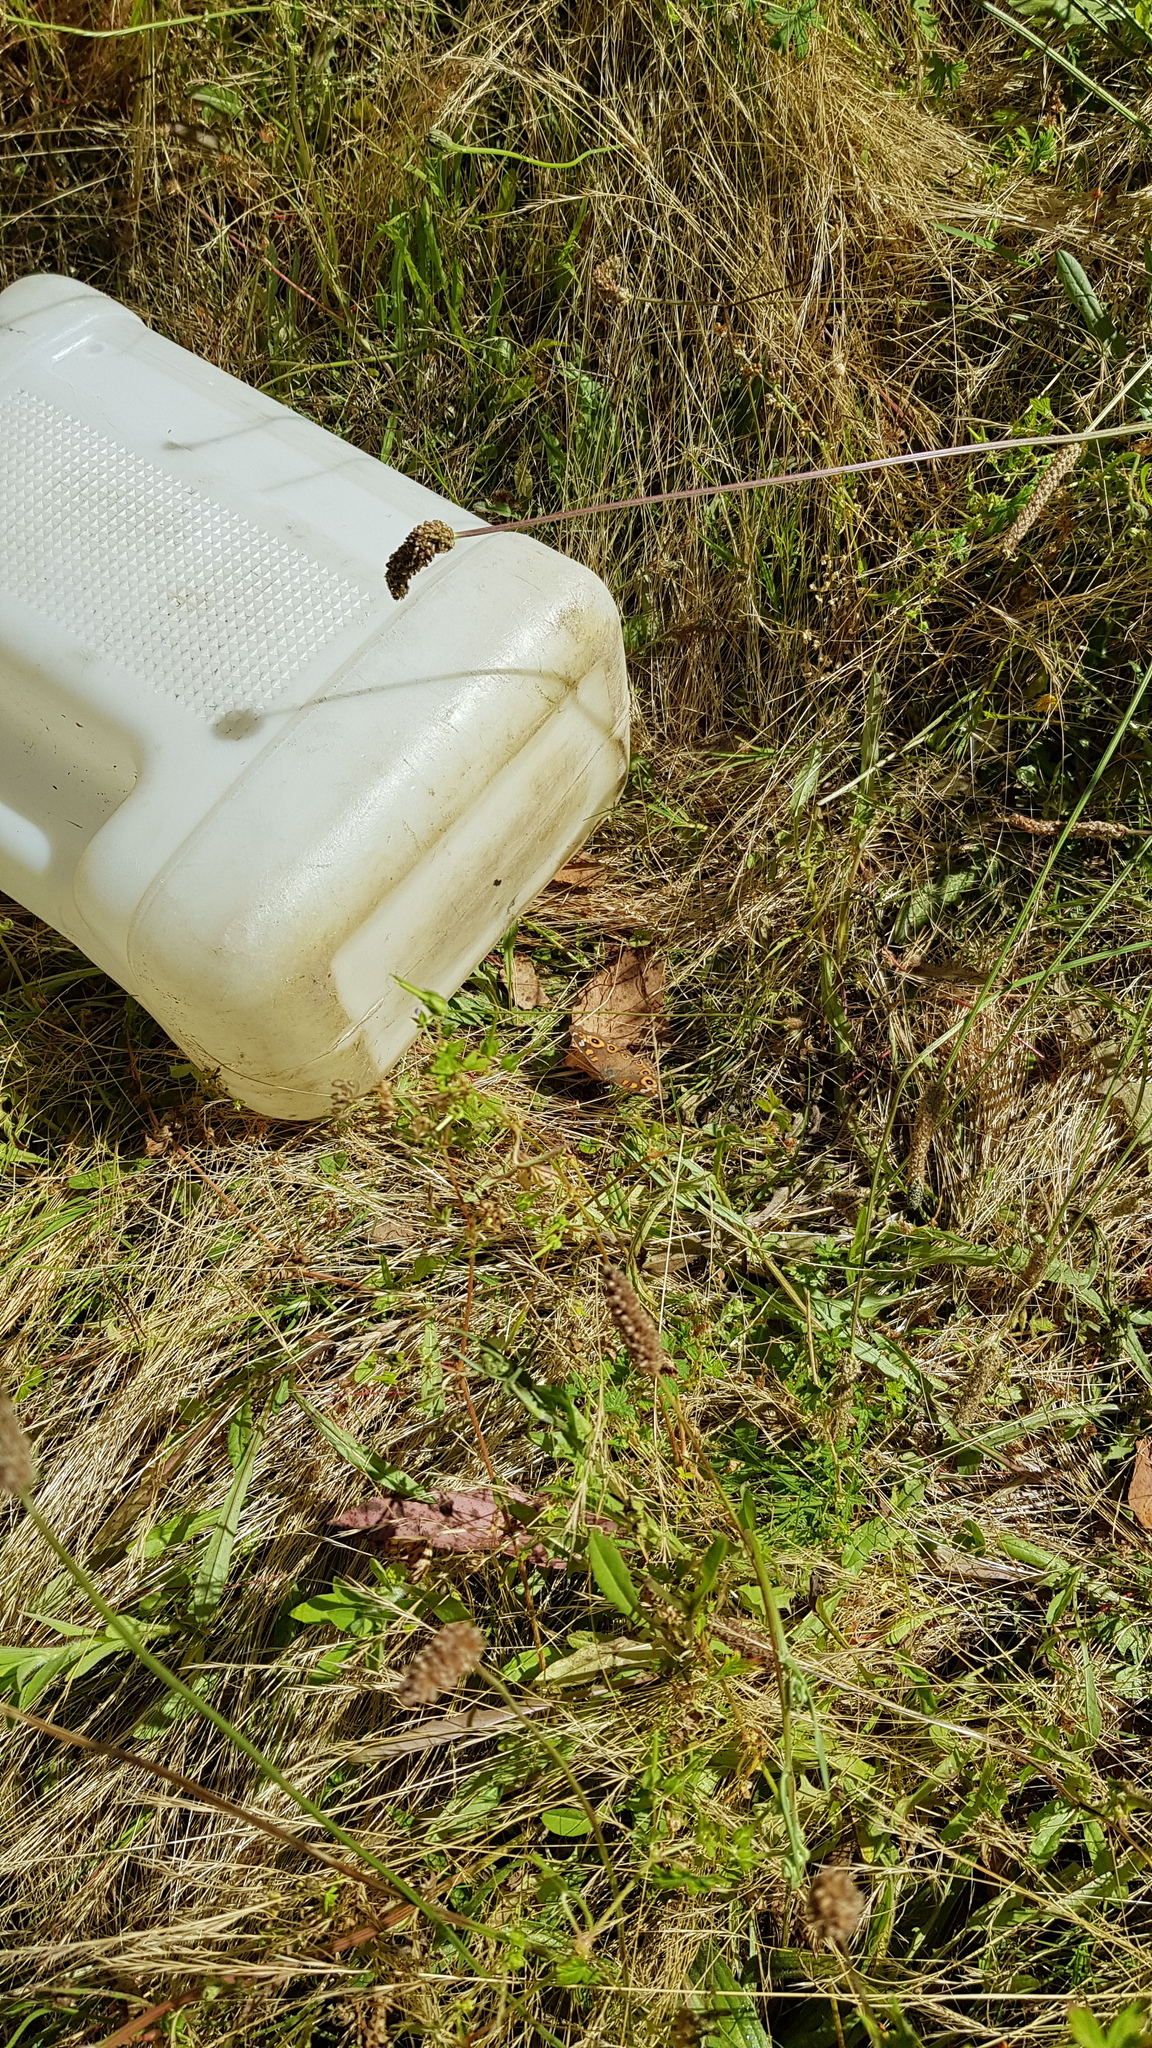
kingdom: Animalia
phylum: Arthropoda
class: Insecta
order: Lepidoptera
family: Nymphalidae
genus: Junonia
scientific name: Junonia villida
